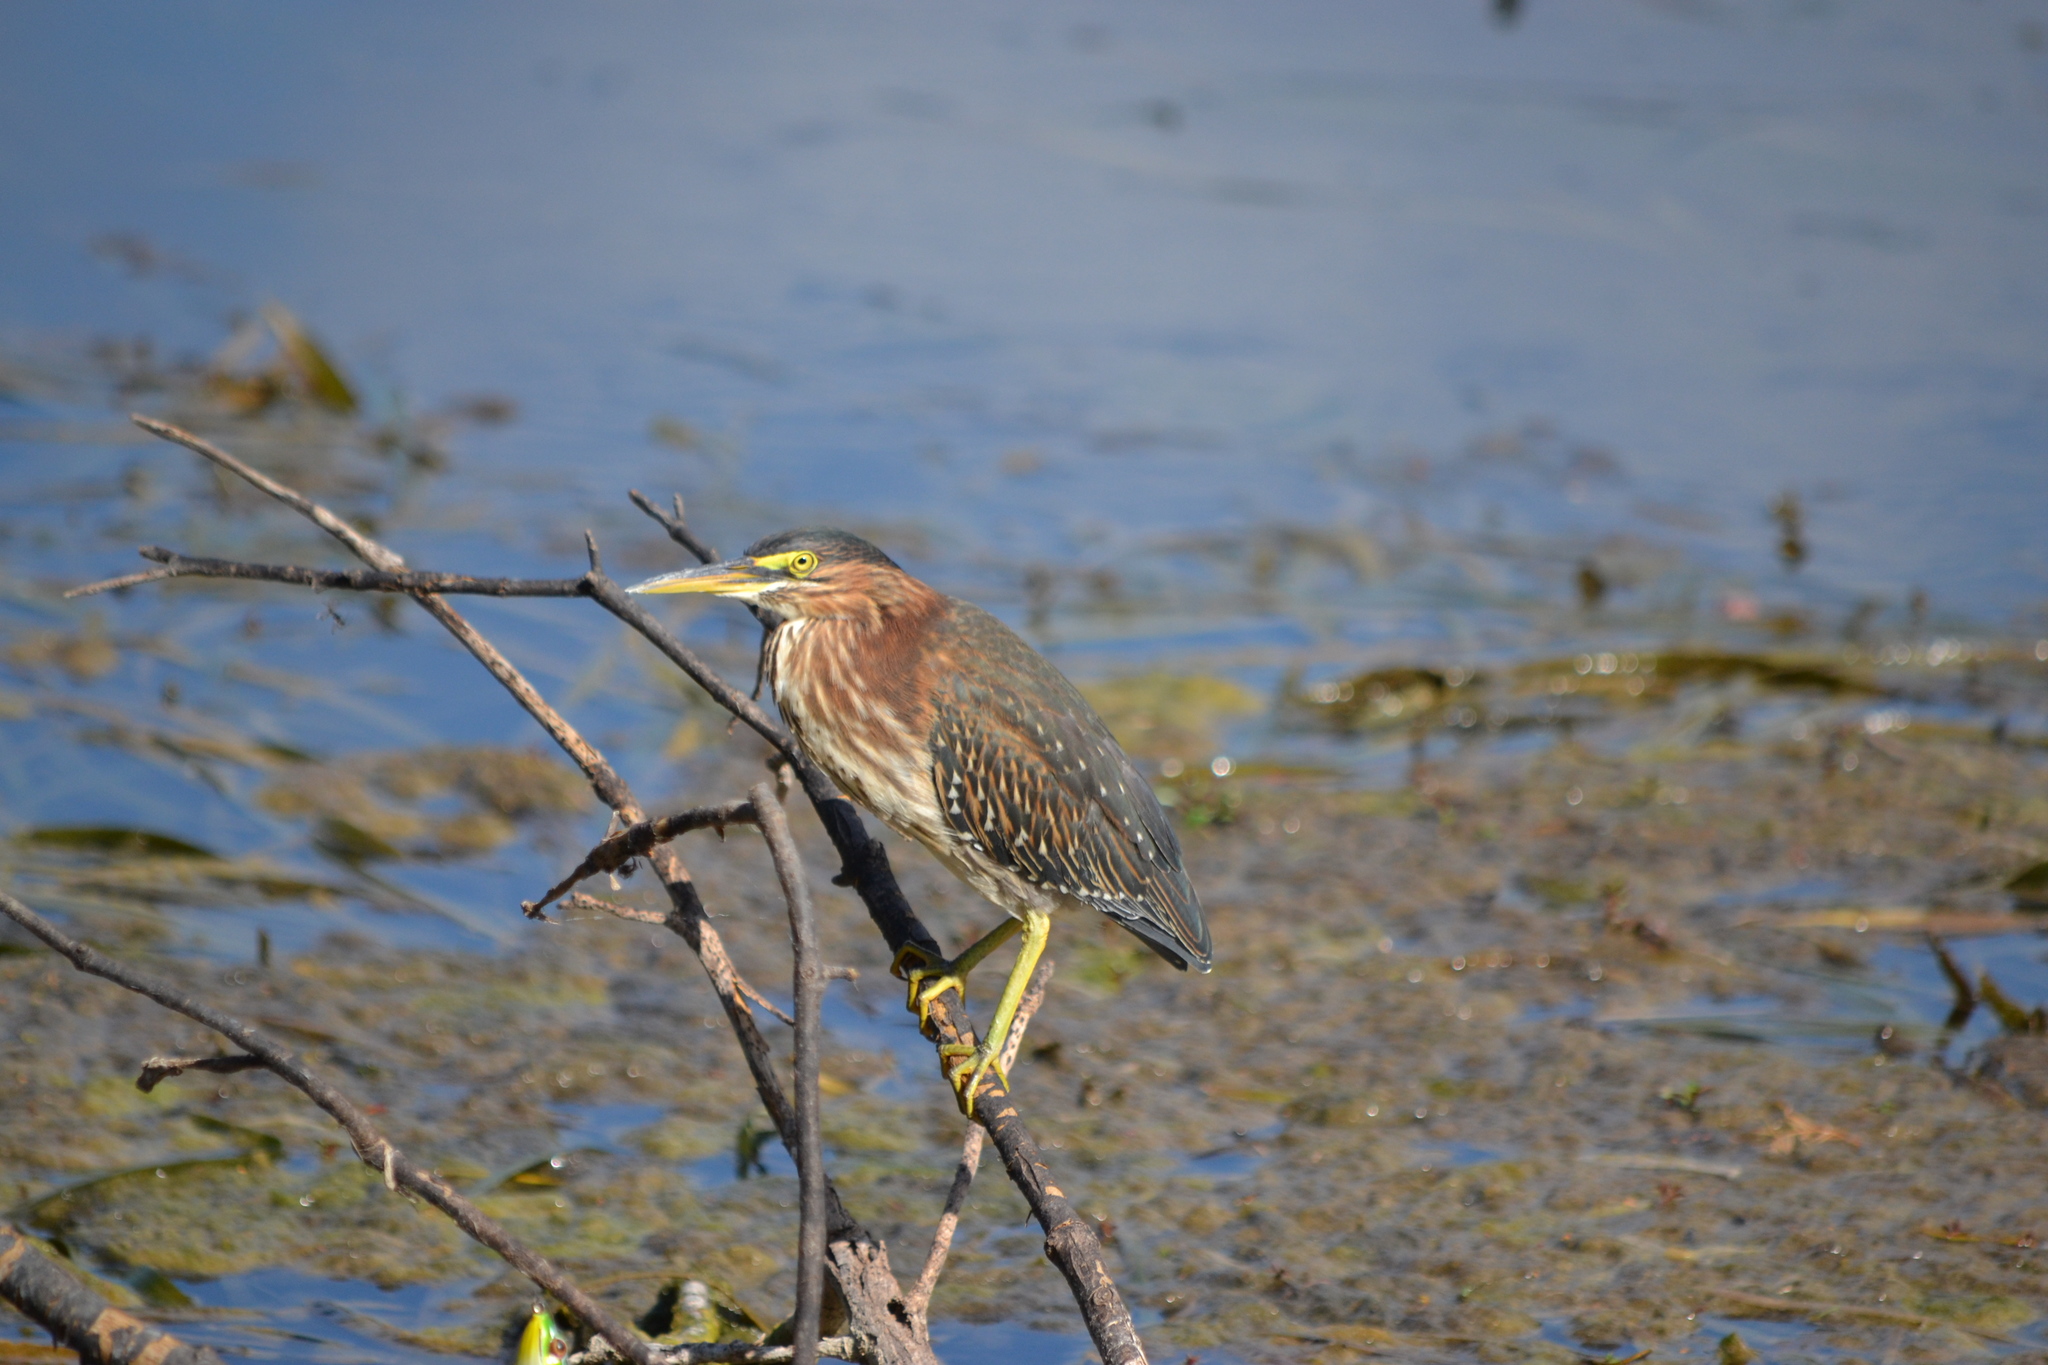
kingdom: Animalia
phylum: Chordata
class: Aves
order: Pelecaniformes
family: Ardeidae
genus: Butorides
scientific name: Butorides virescens
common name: Green heron
